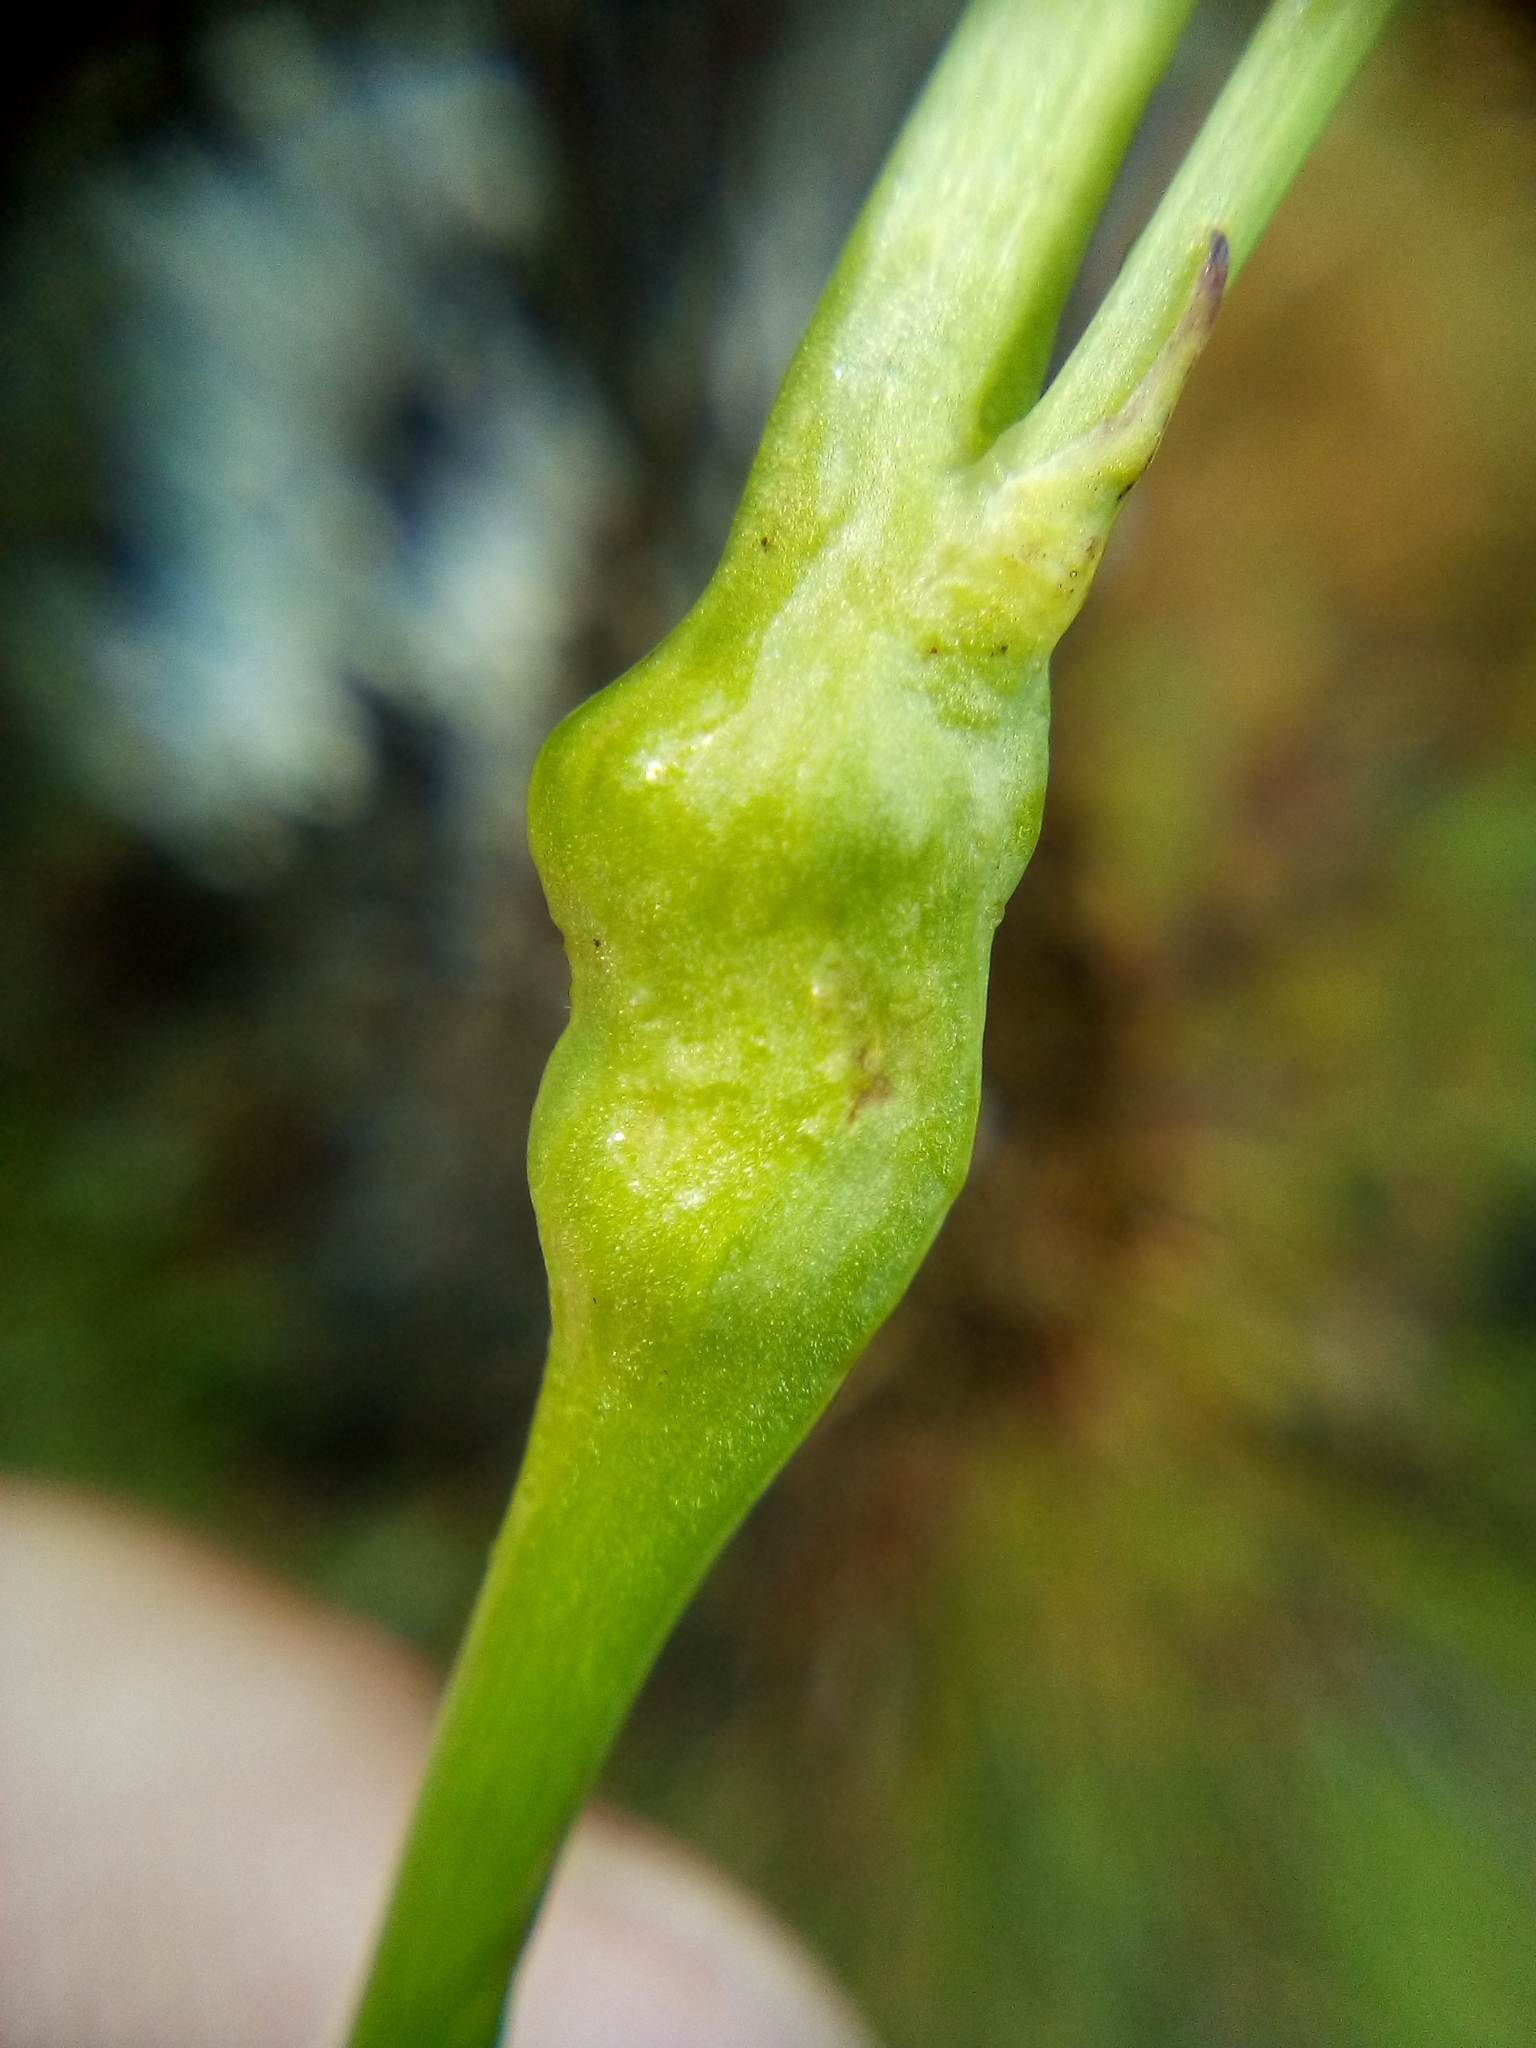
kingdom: Animalia
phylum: Arthropoda
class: Insecta
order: Hymenoptera
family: Cynipidae
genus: Phanacis
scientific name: Phanacis hypochoeridis
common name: Gall wasp
